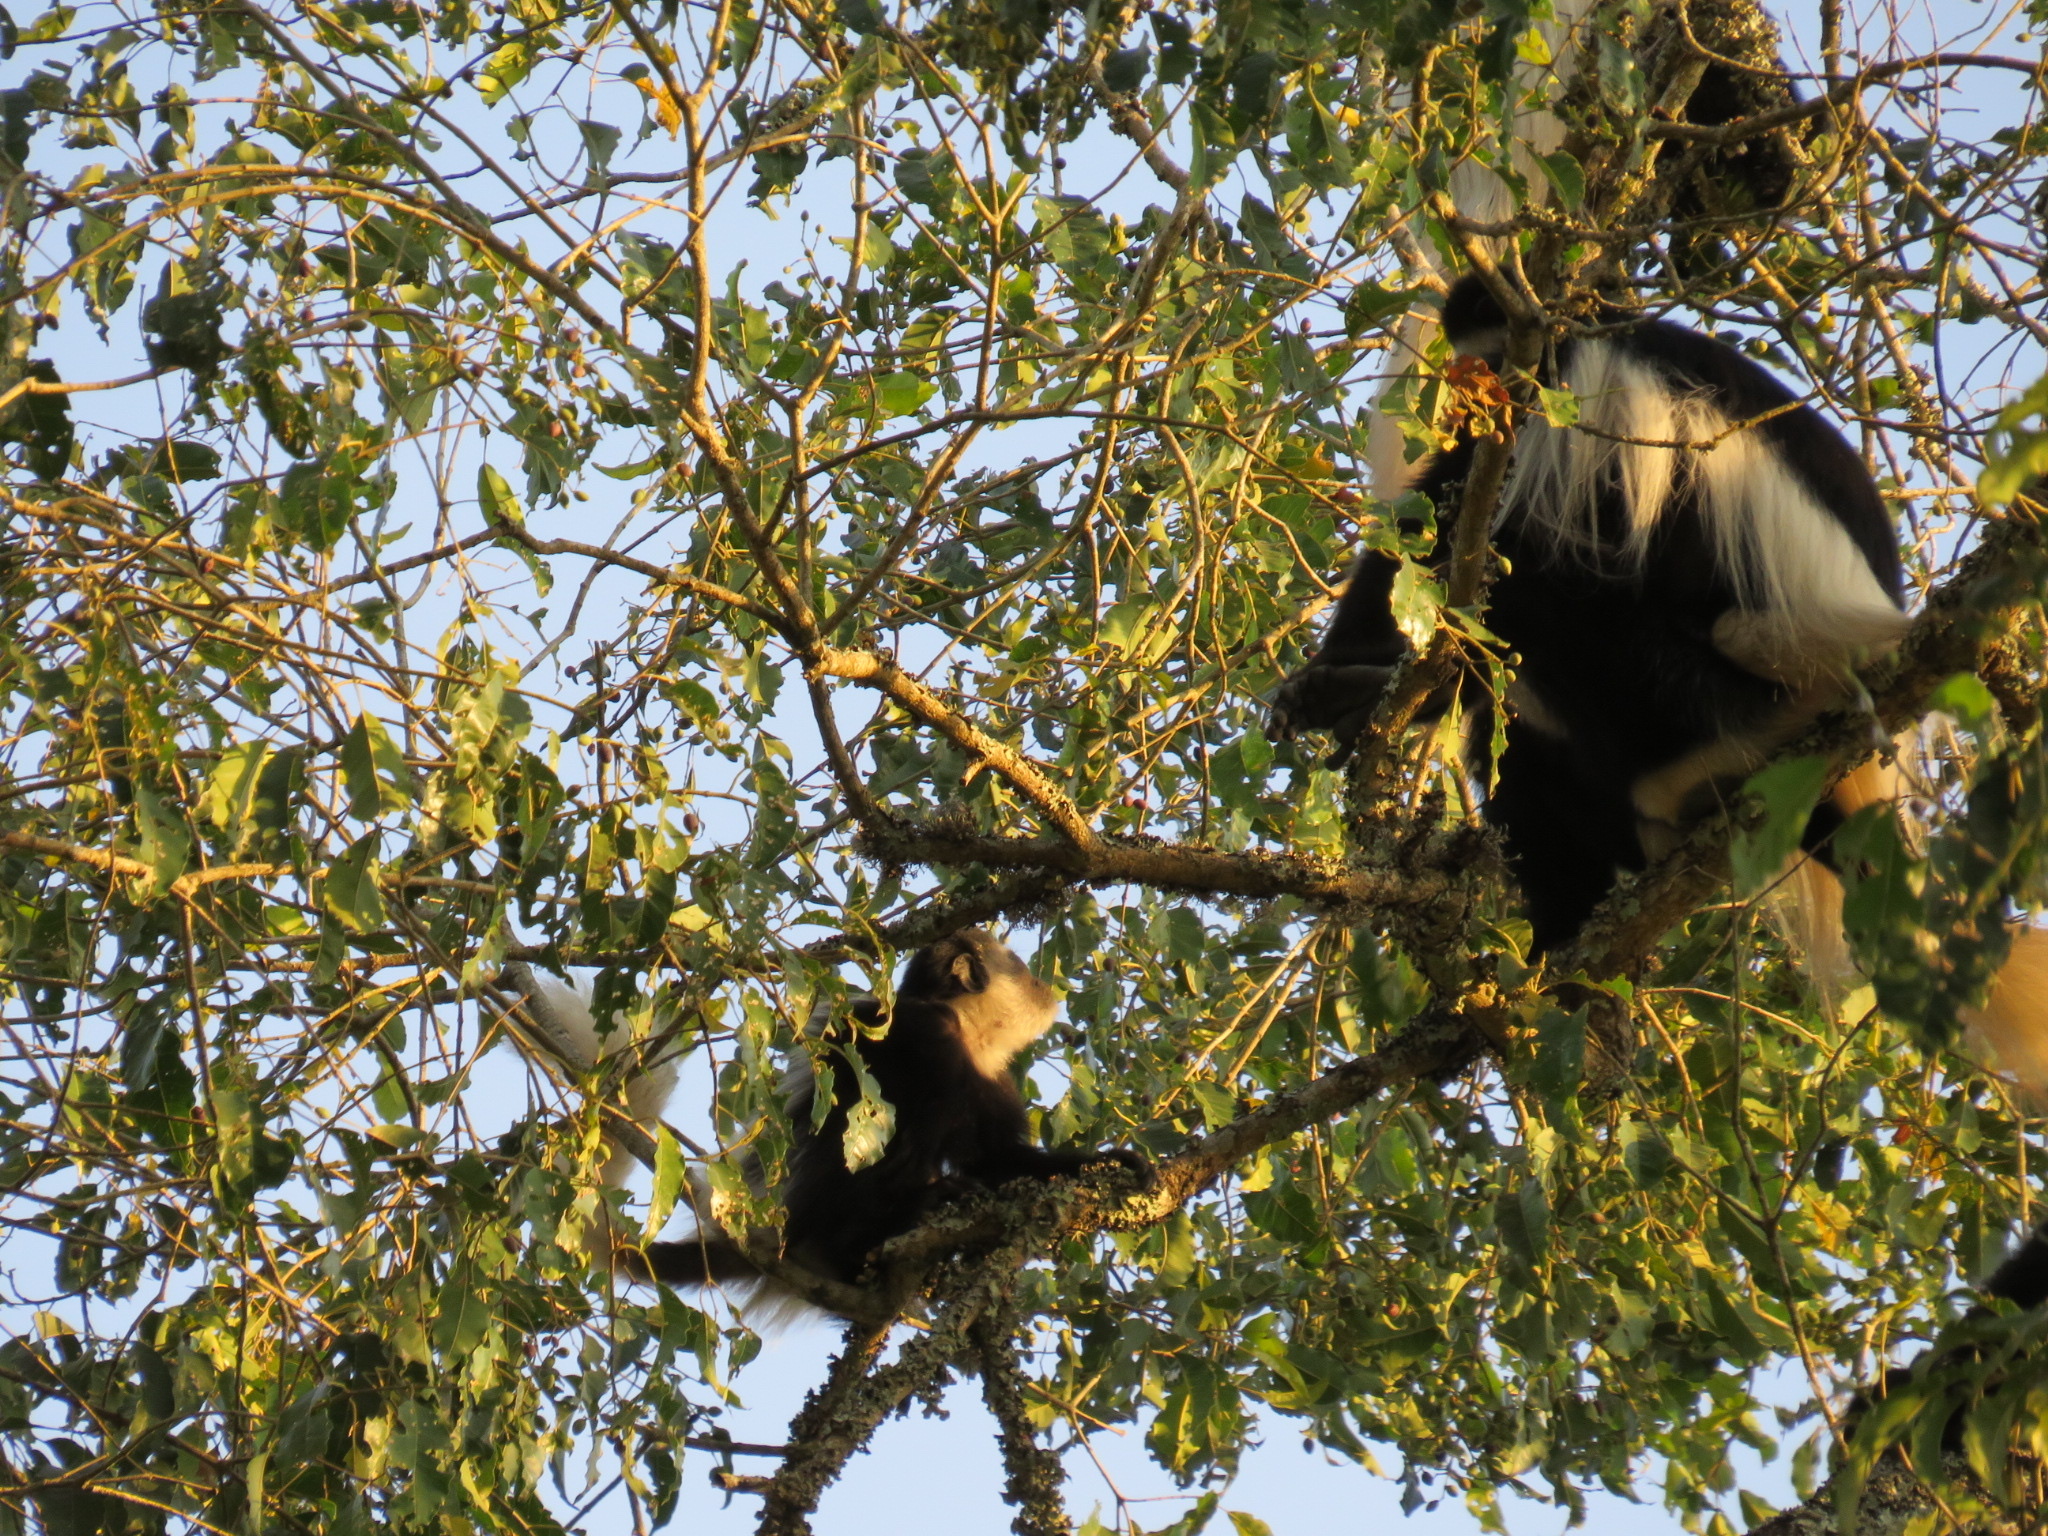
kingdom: Animalia
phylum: Chordata
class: Mammalia
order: Primates
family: Cercopithecidae
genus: Colobus
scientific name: Colobus caudatus
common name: Mount kilimanjaro guereza
